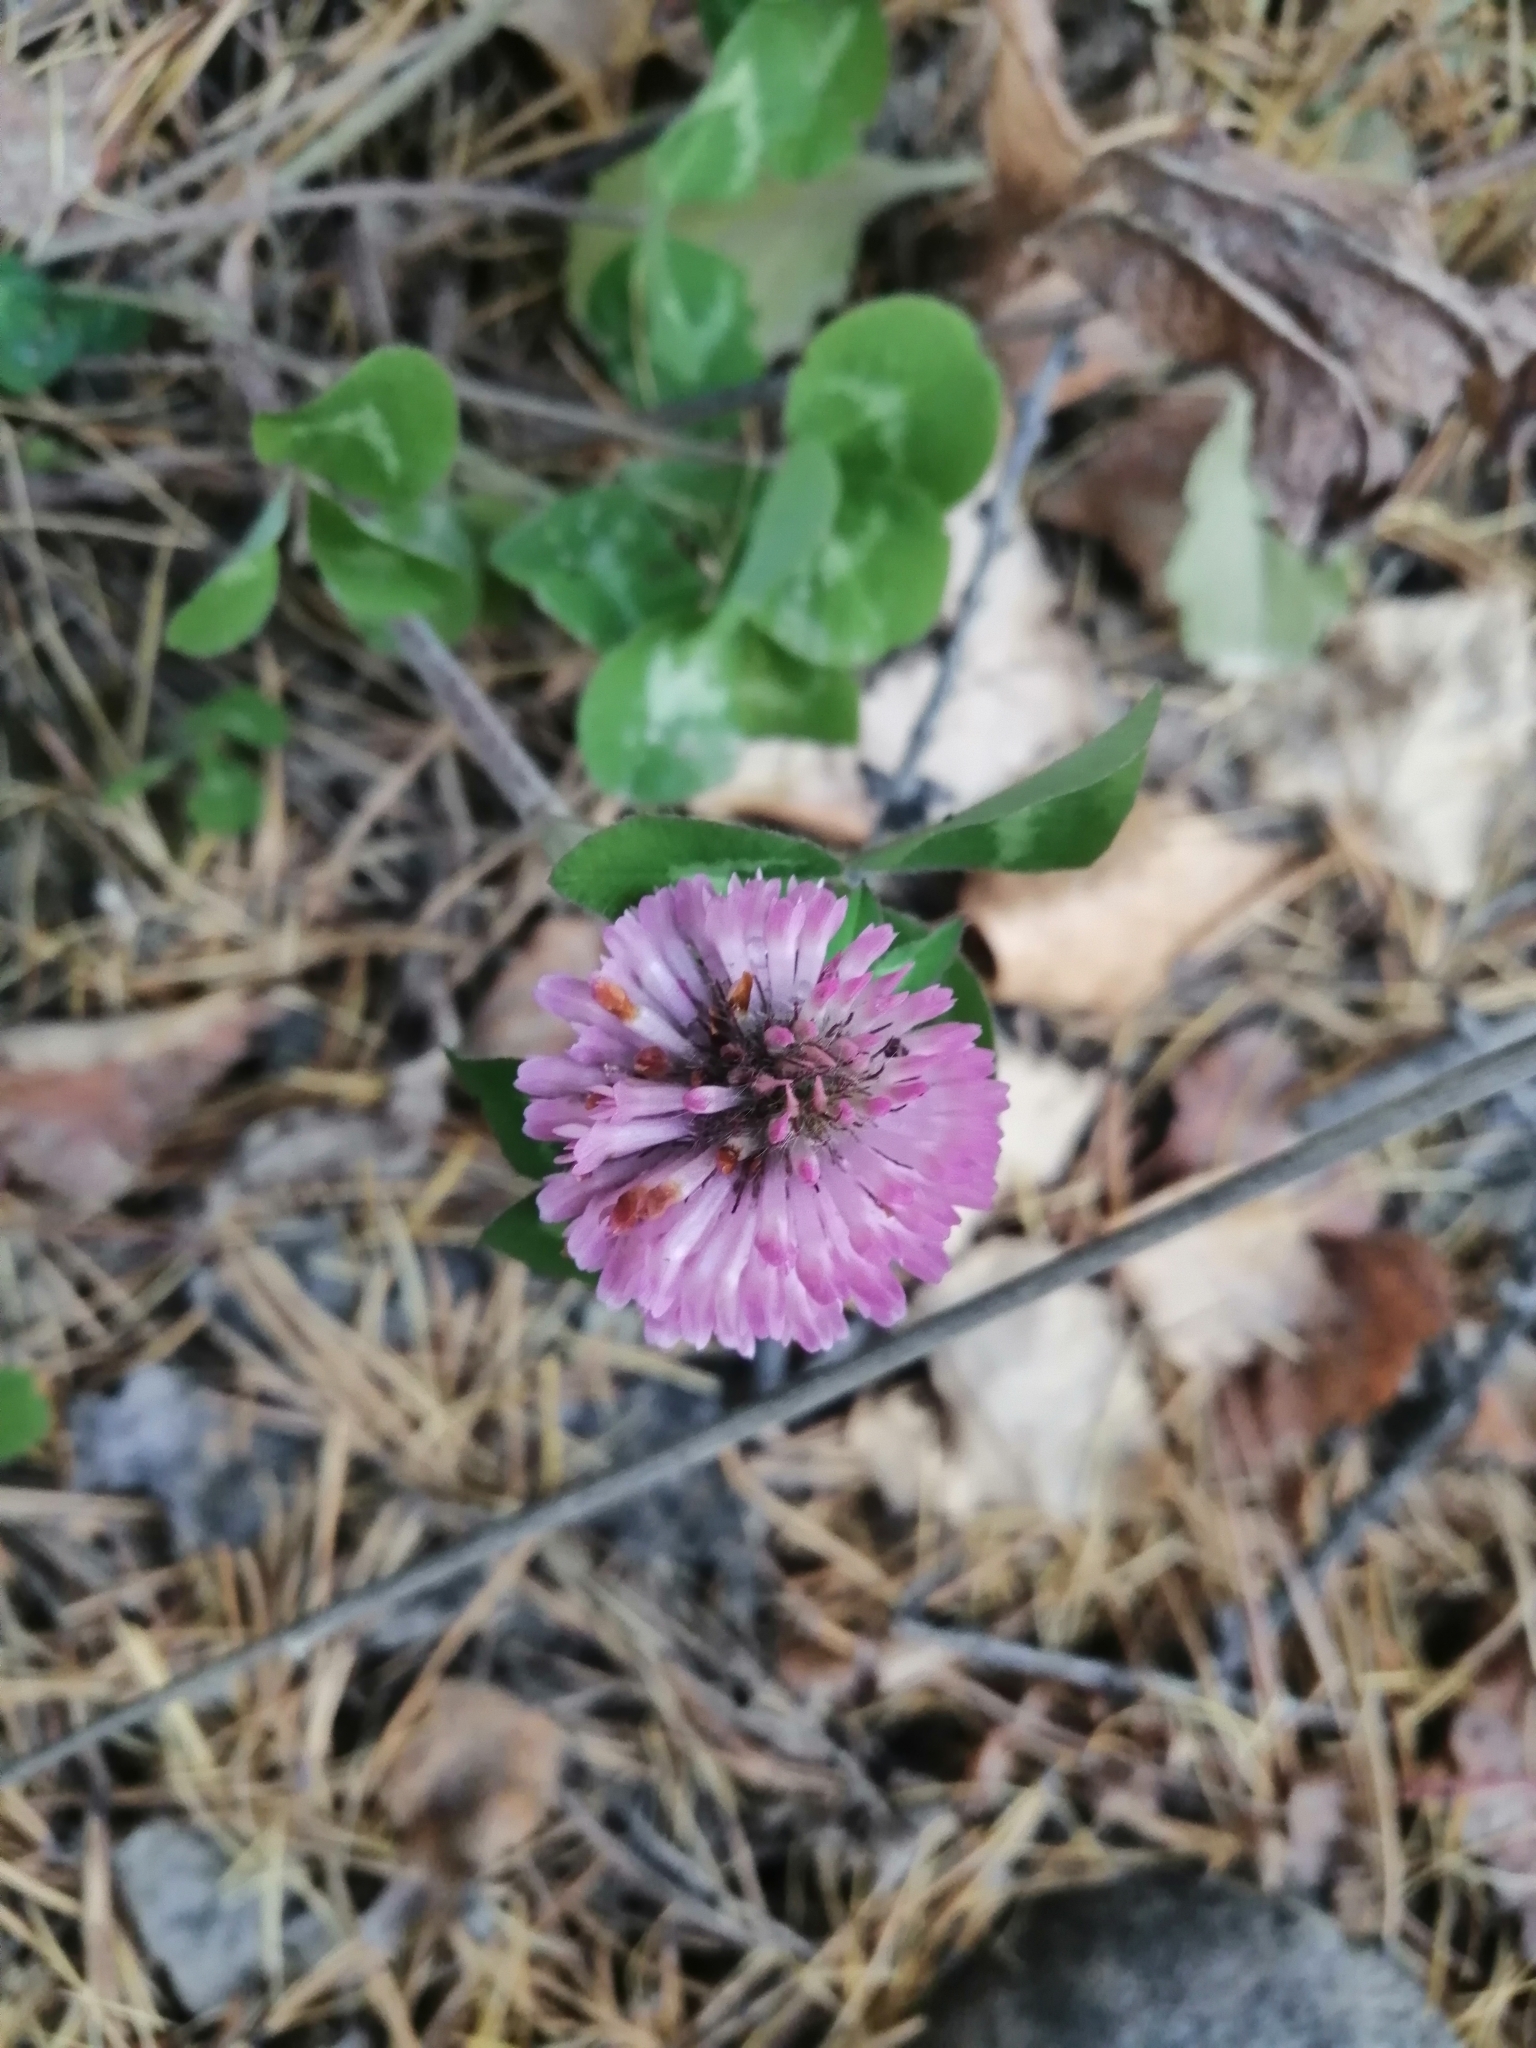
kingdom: Plantae
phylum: Tracheophyta
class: Magnoliopsida
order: Fabales
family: Fabaceae
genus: Trifolium
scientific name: Trifolium pratense
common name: Red clover
